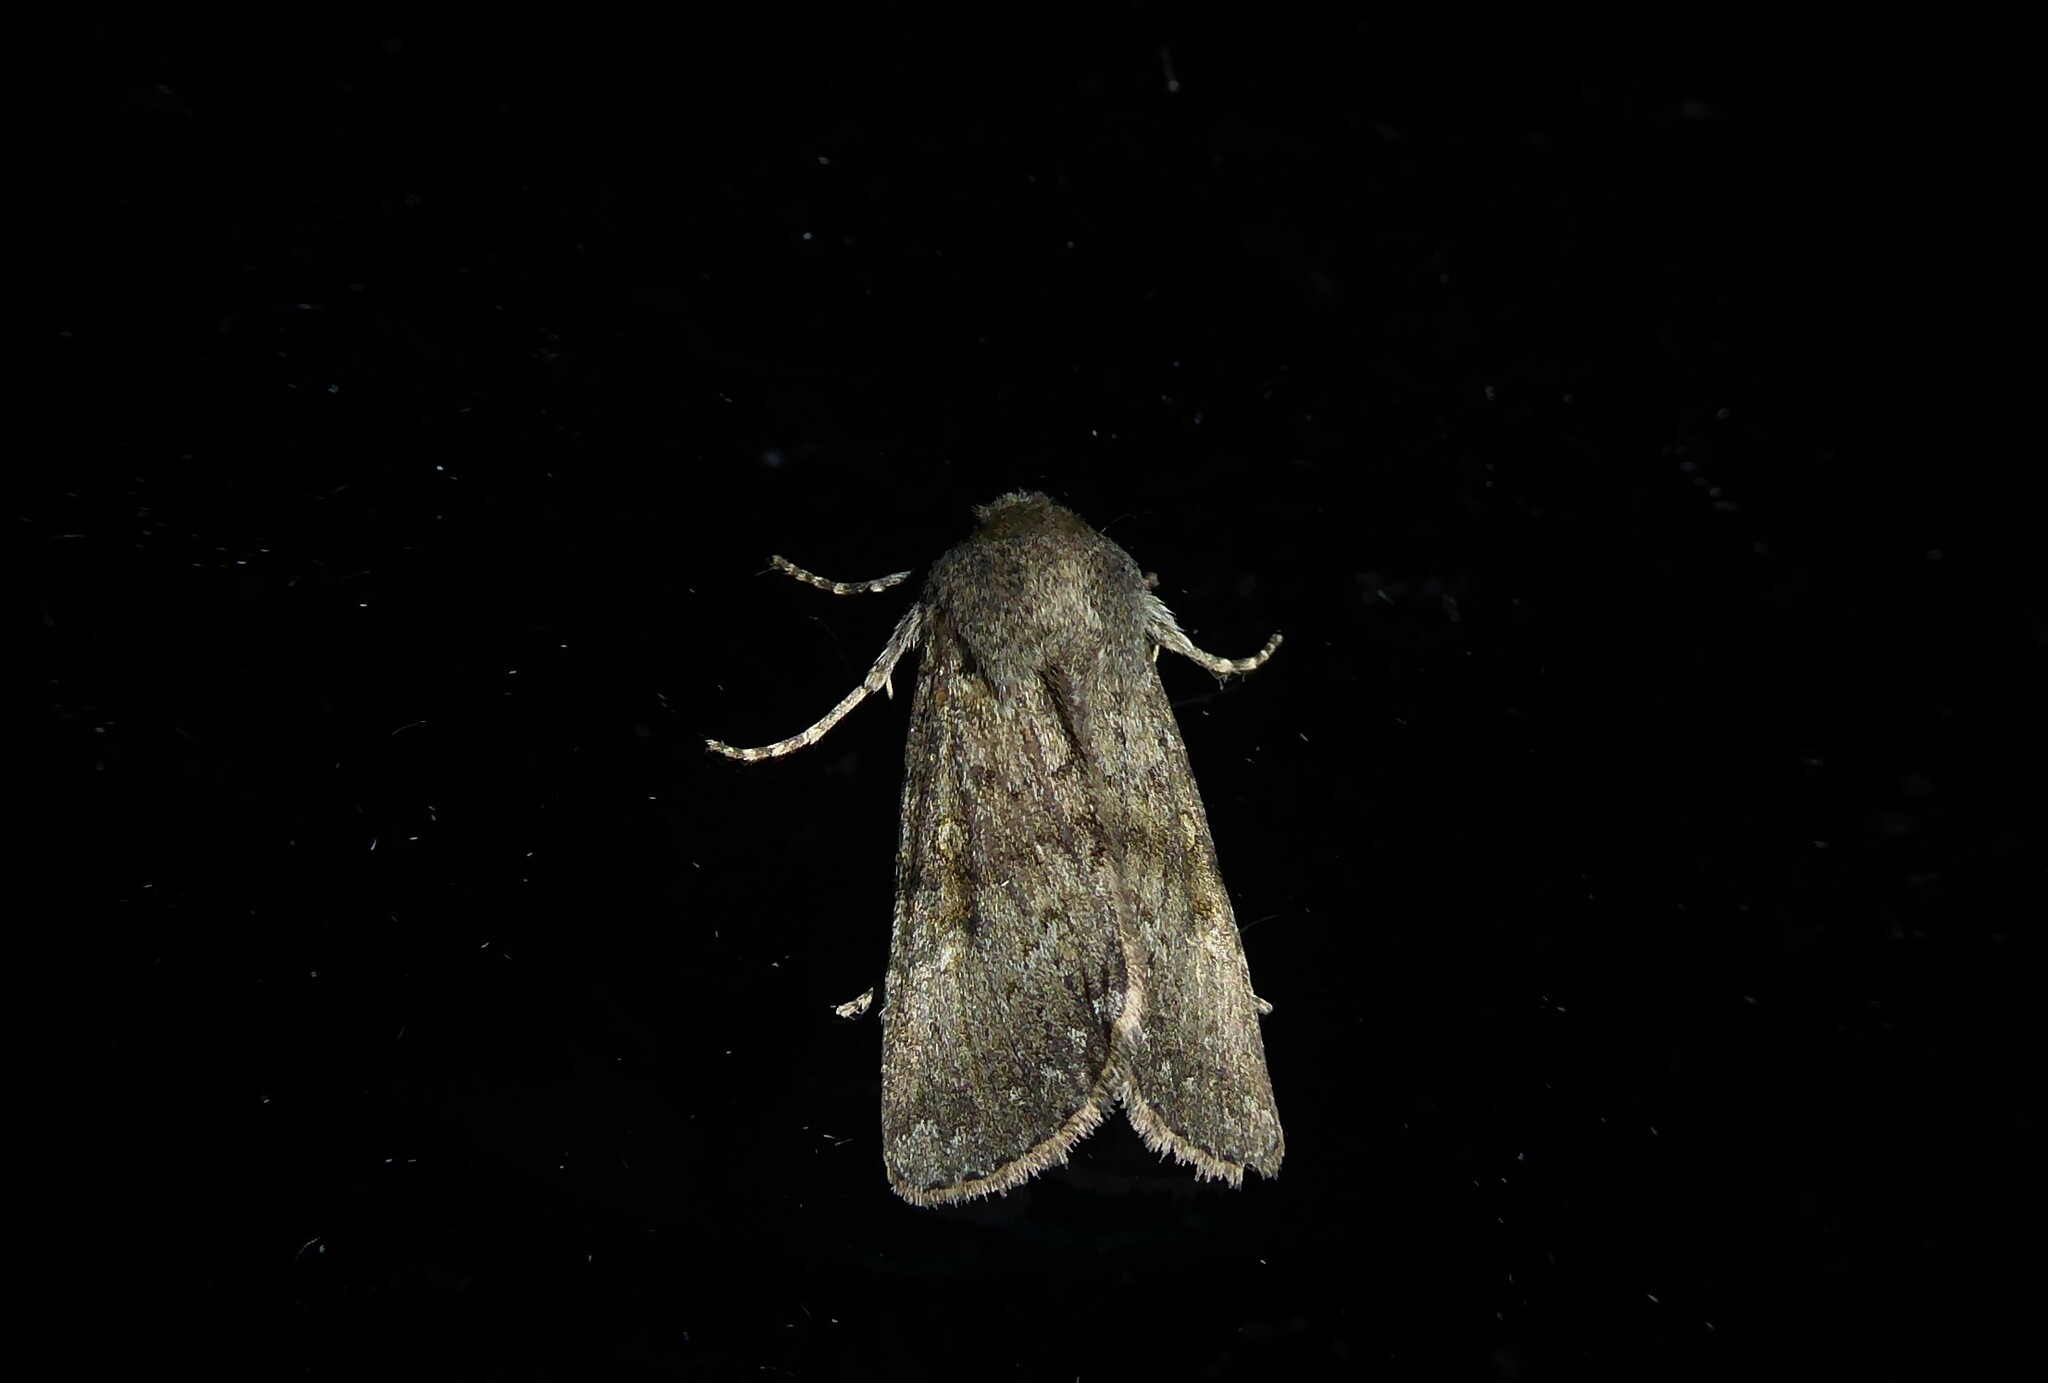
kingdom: Animalia
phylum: Arthropoda
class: Insecta
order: Lepidoptera
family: Noctuidae
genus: Ichneutica
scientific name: Ichneutica moderata
